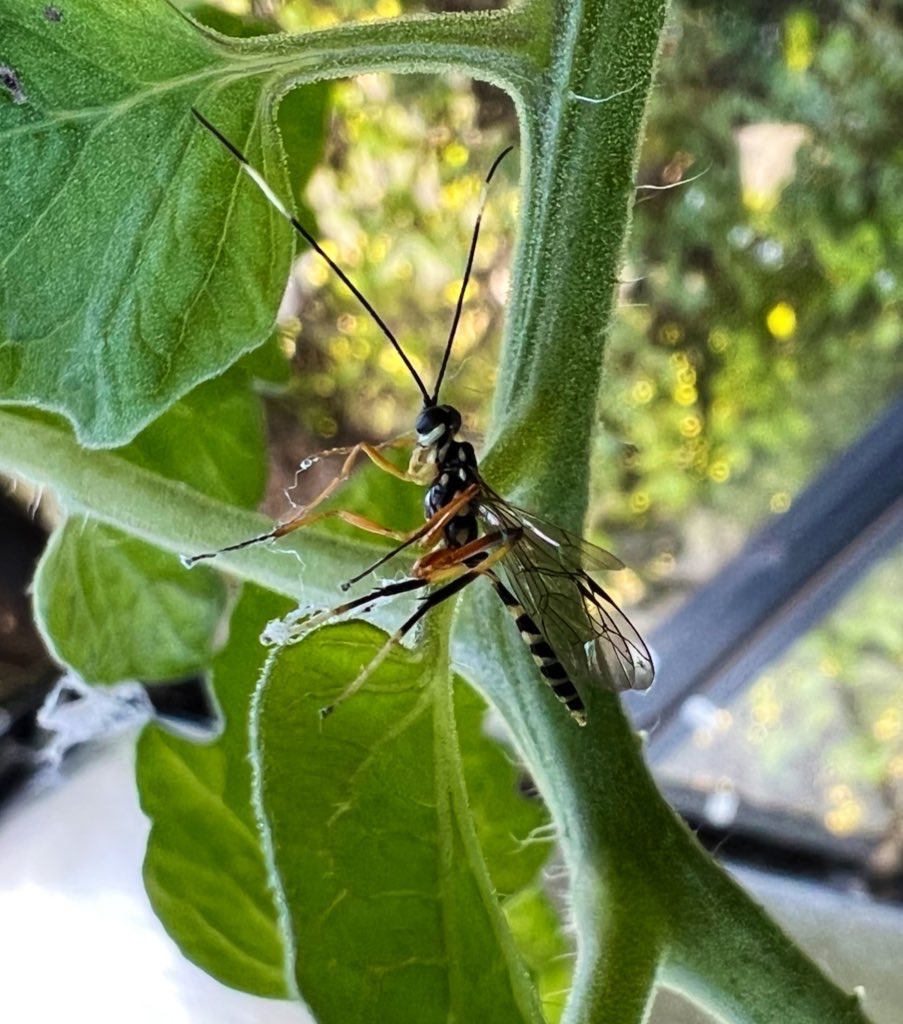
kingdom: Animalia
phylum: Arthropoda
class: Insecta
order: Hymenoptera
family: Ichneumonidae
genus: Xanthocryptus
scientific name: Xanthocryptus novozealandicus
